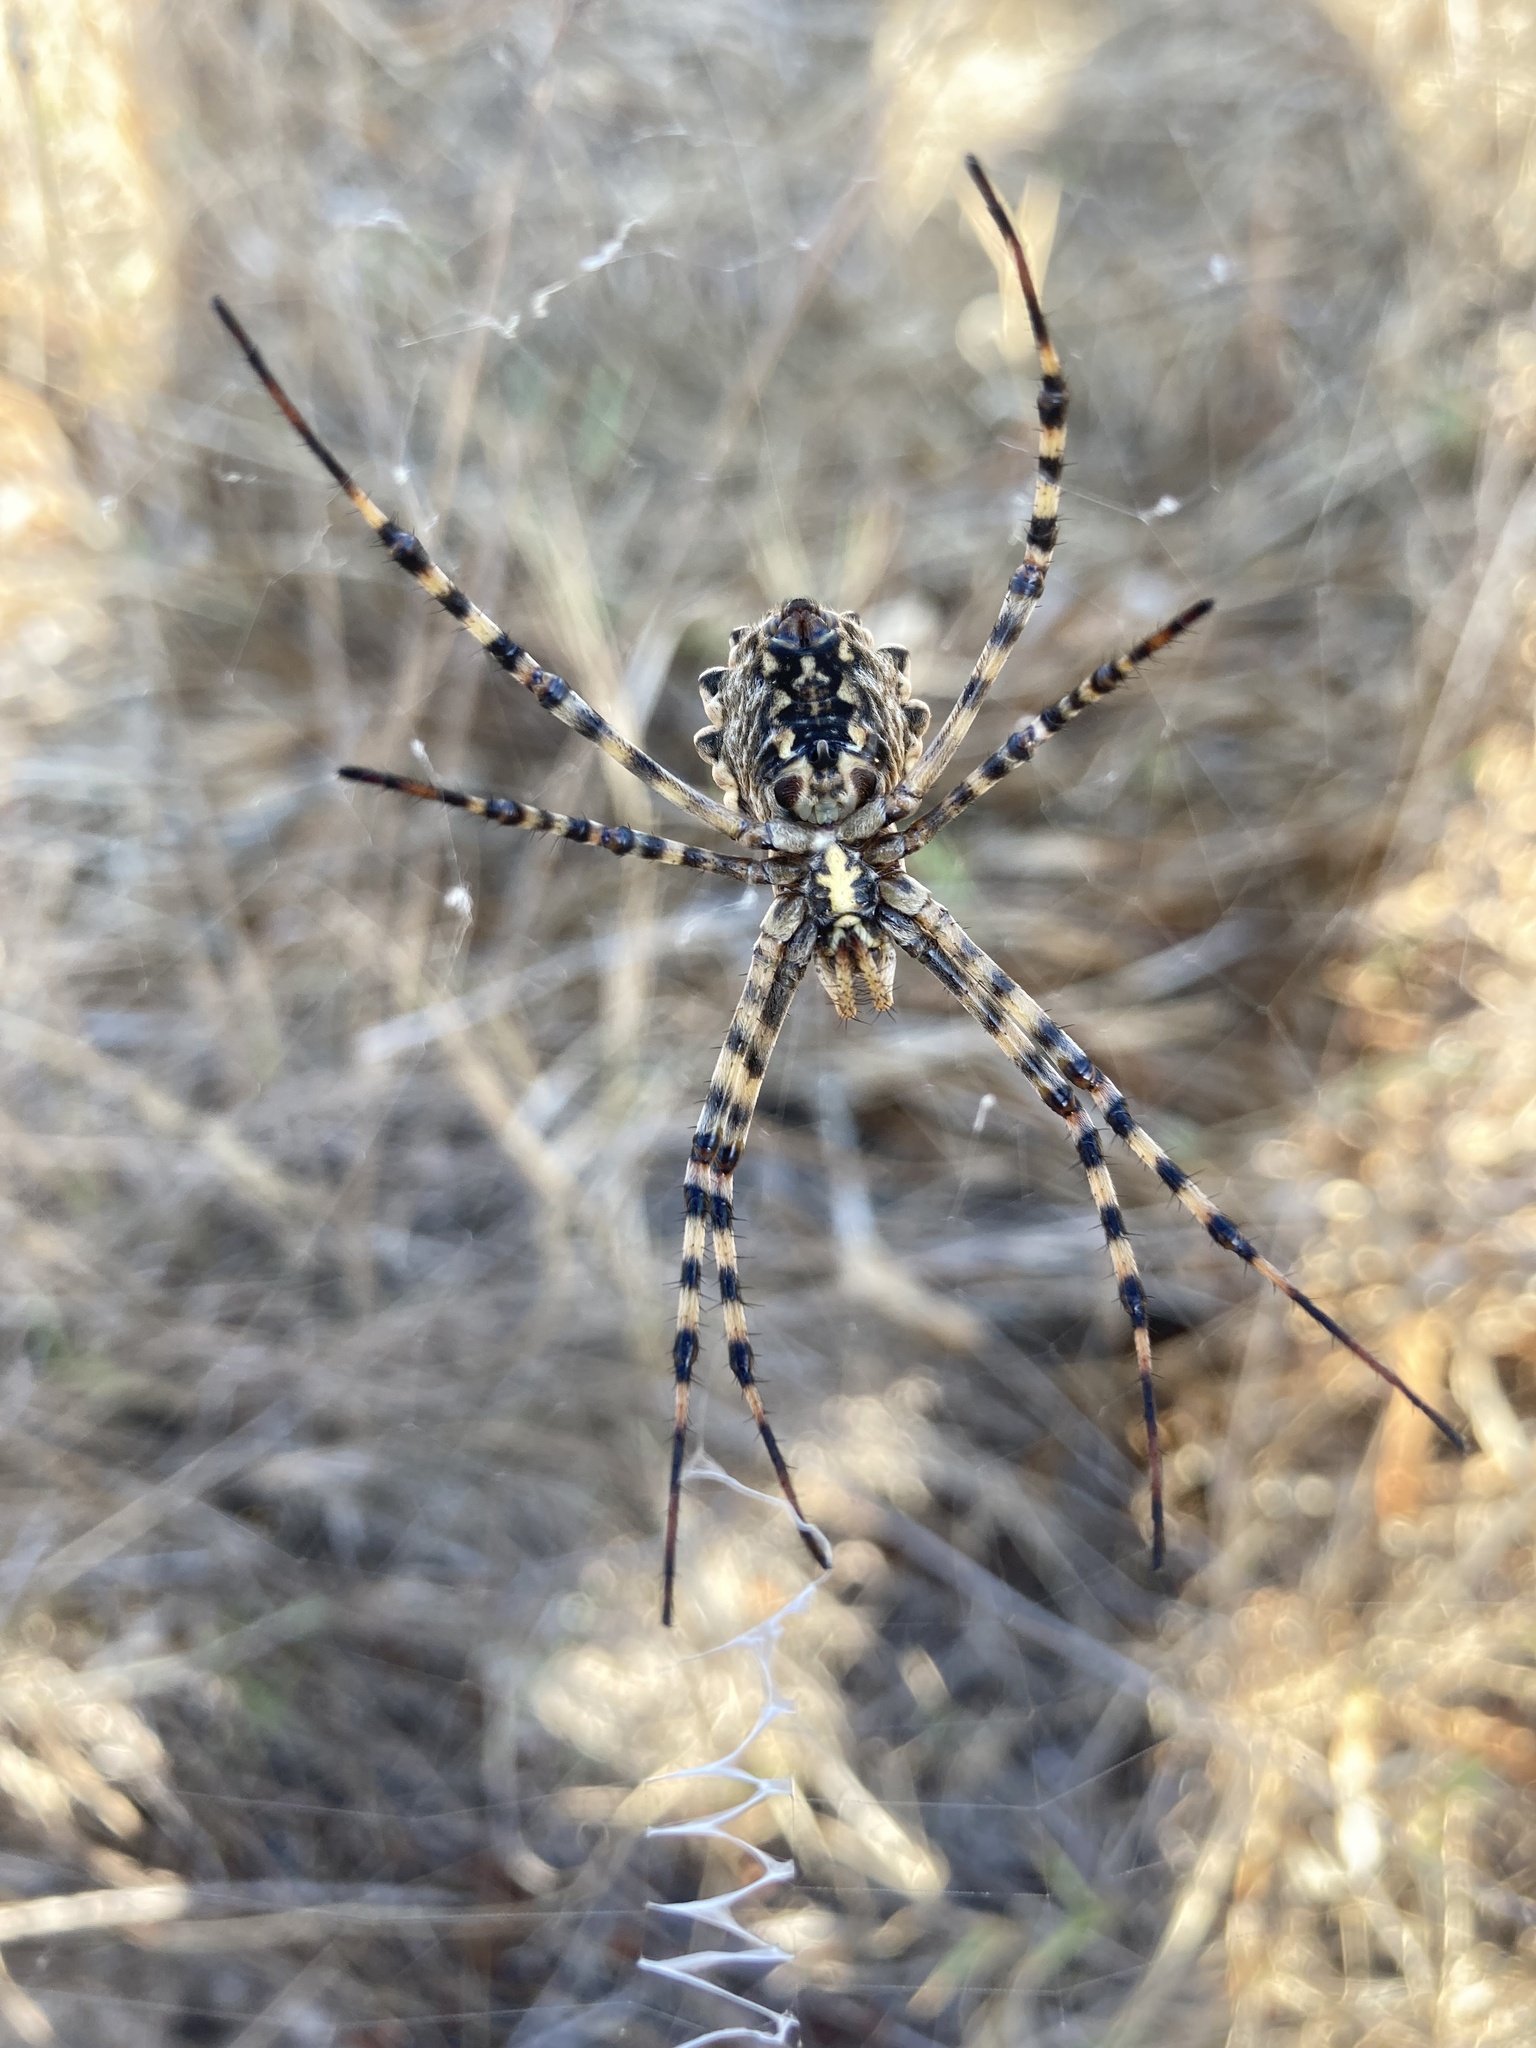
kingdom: Animalia
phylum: Arthropoda
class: Arachnida
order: Araneae
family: Araneidae
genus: Argiope
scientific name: Argiope lobata
